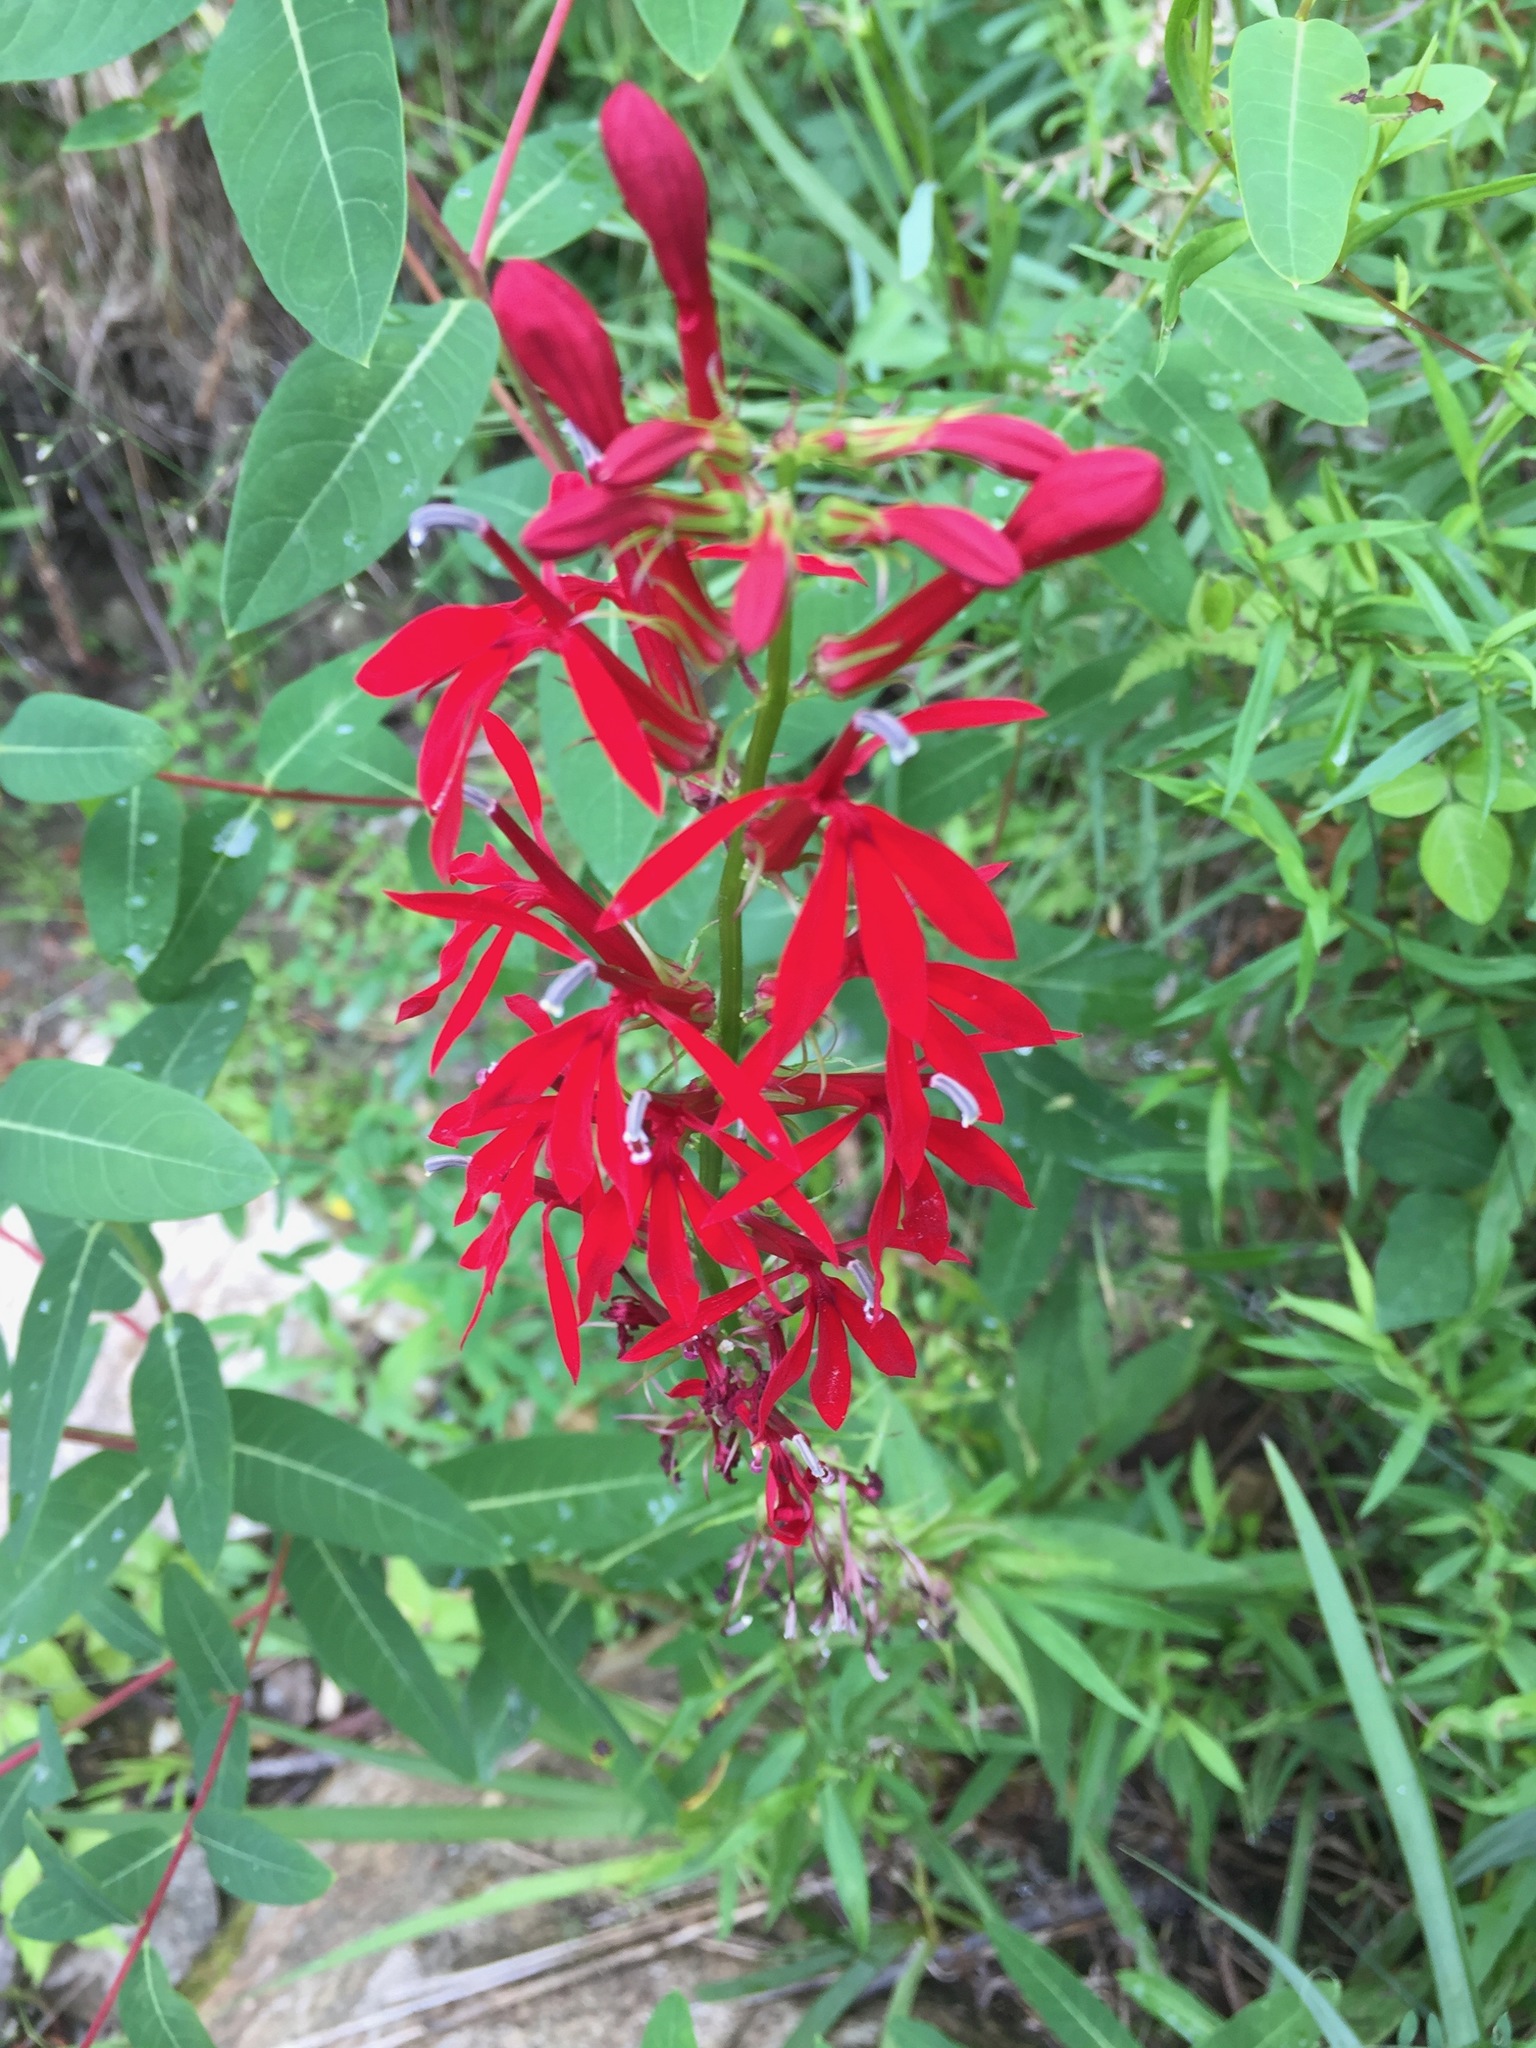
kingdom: Plantae
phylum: Tracheophyta
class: Magnoliopsida
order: Asterales
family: Campanulaceae
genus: Lobelia
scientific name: Lobelia cardinalis
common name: Cardinal flower
